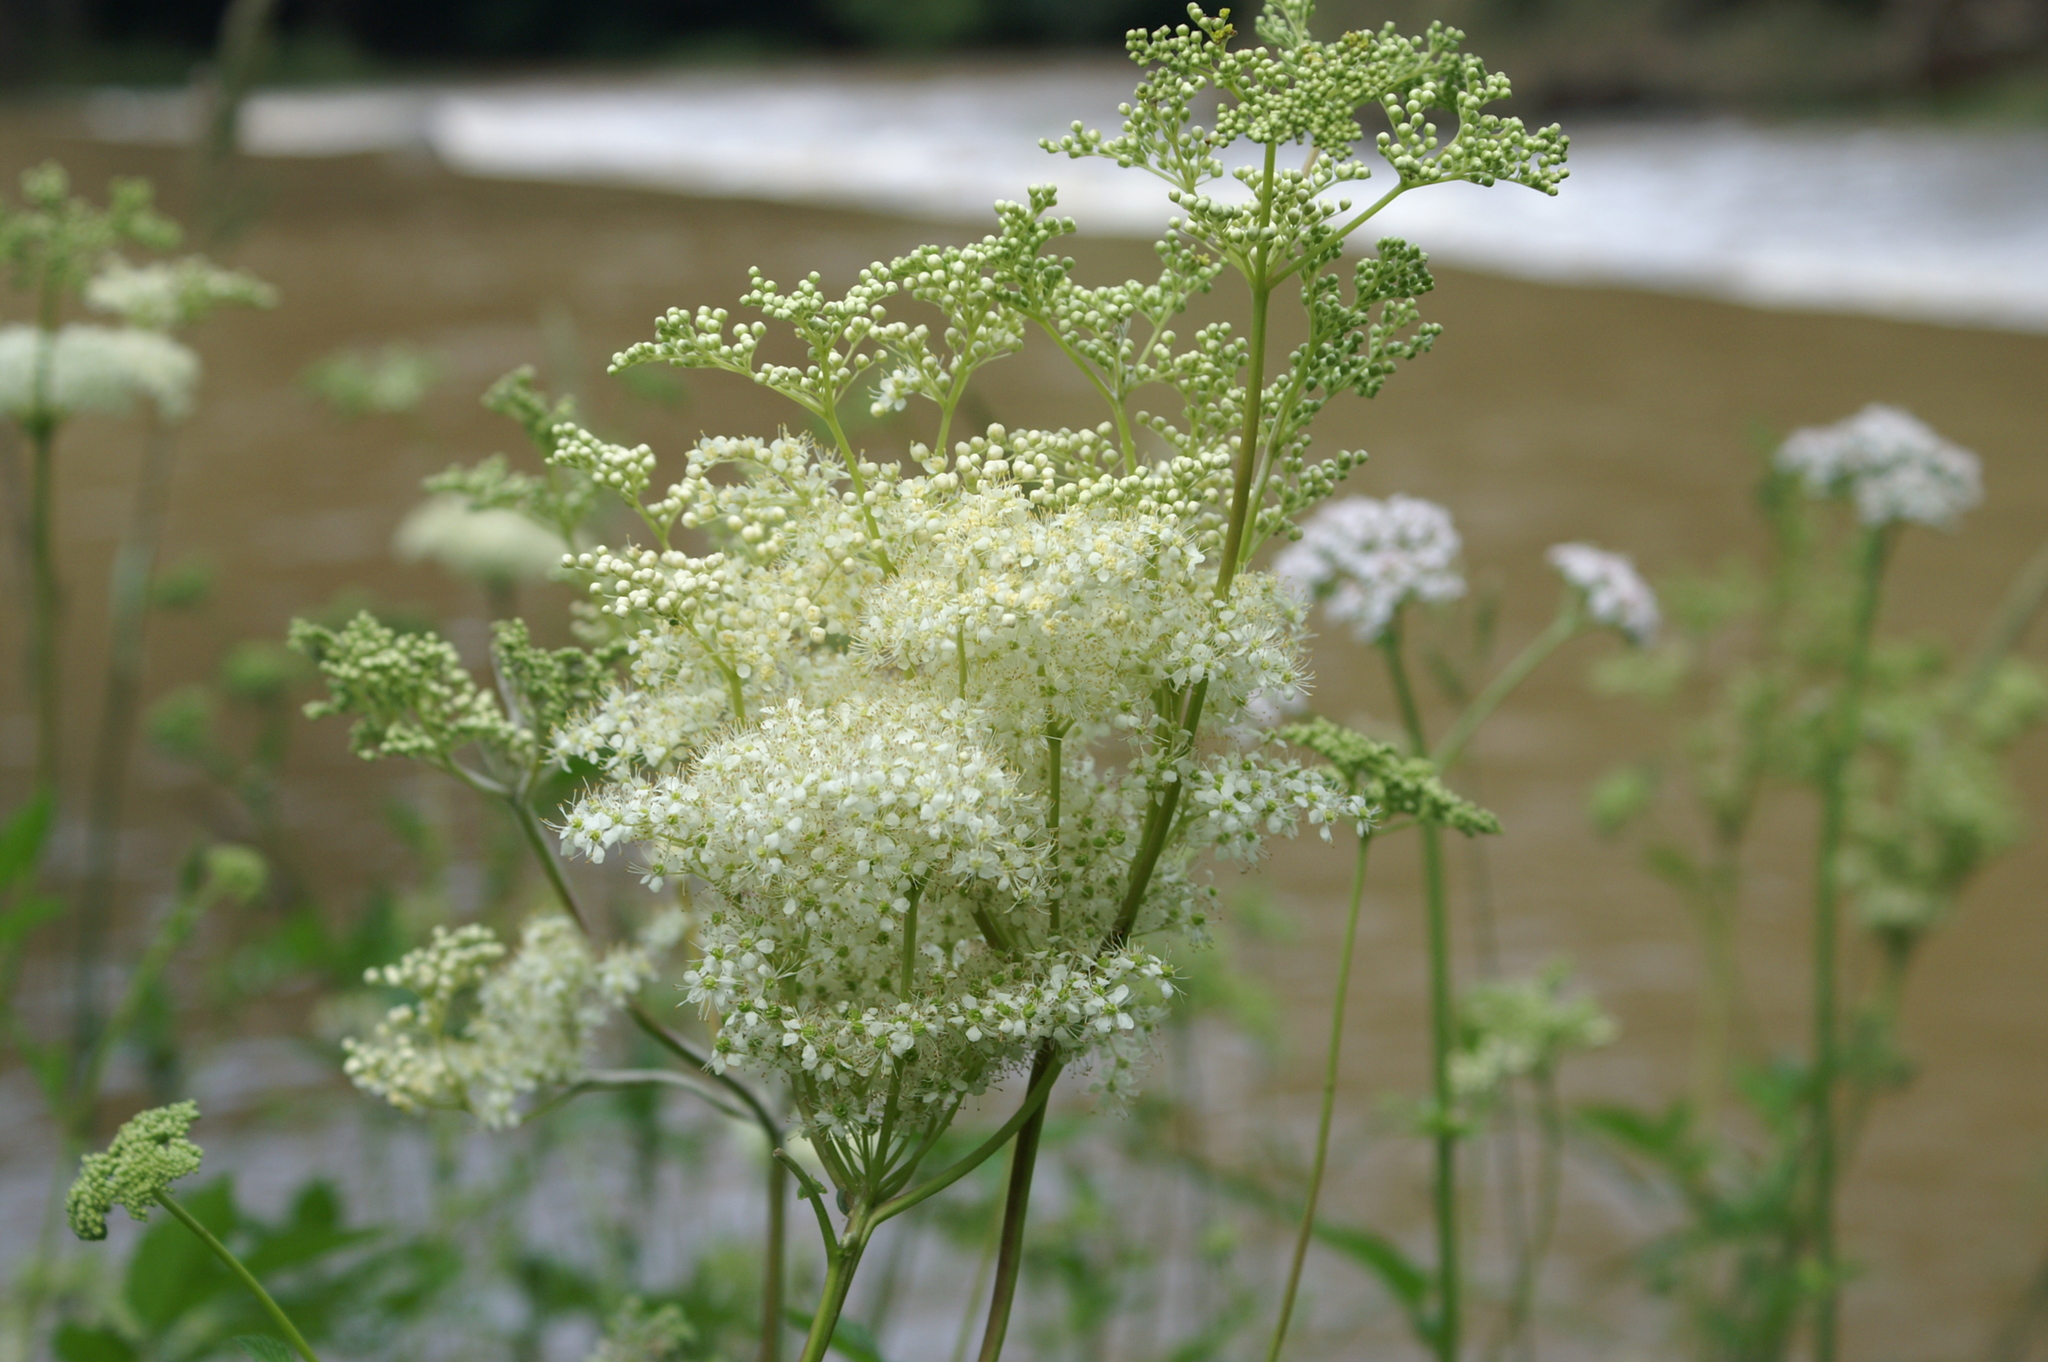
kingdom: Plantae
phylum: Tracheophyta
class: Magnoliopsida
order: Rosales
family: Rosaceae
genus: Filipendula
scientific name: Filipendula ulmaria
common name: Meadowsweet
